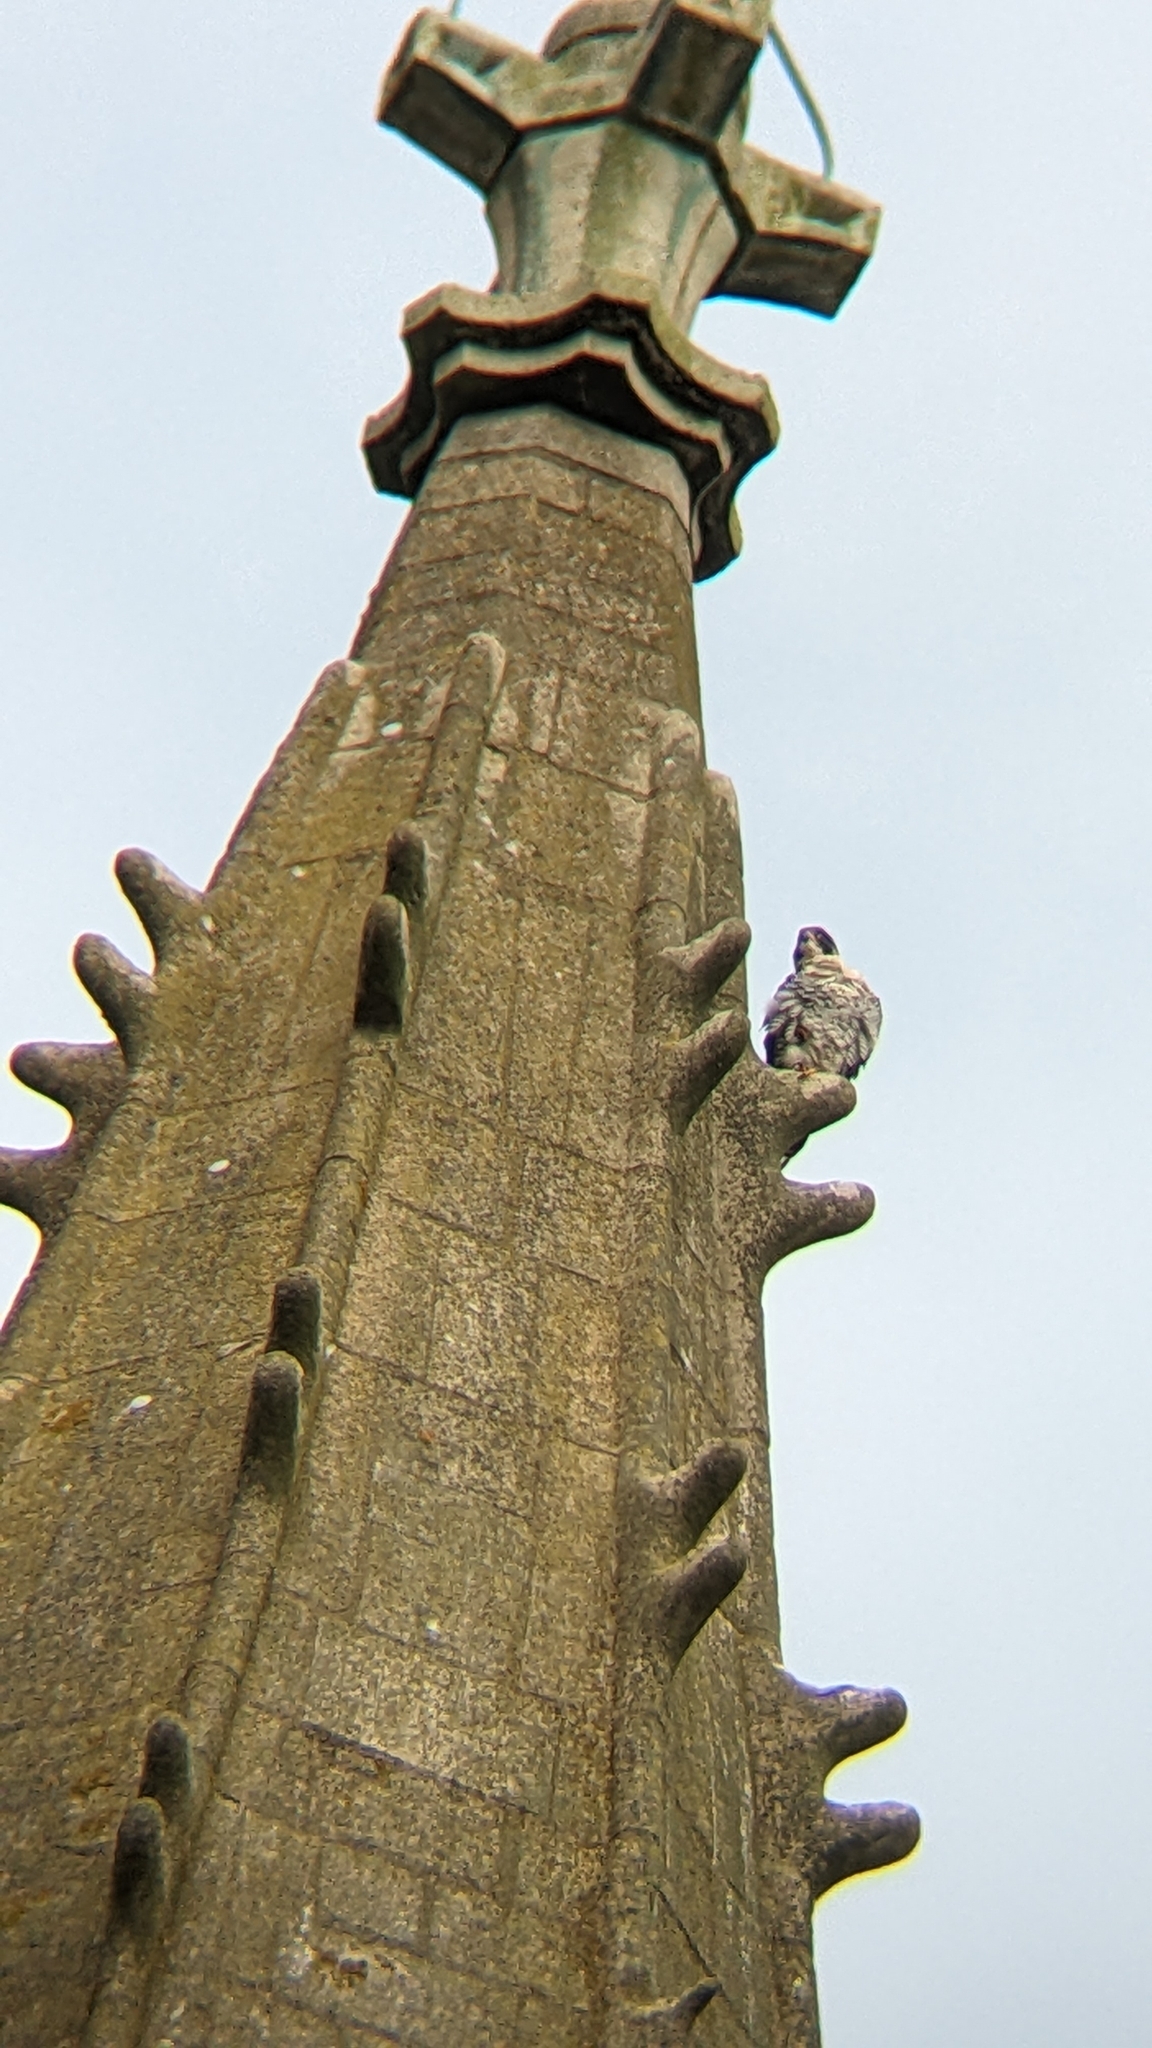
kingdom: Animalia
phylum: Chordata
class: Aves
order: Falconiformes
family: Falconidae
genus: Falco
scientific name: Falco peregrinus
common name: Peregrine falcon
